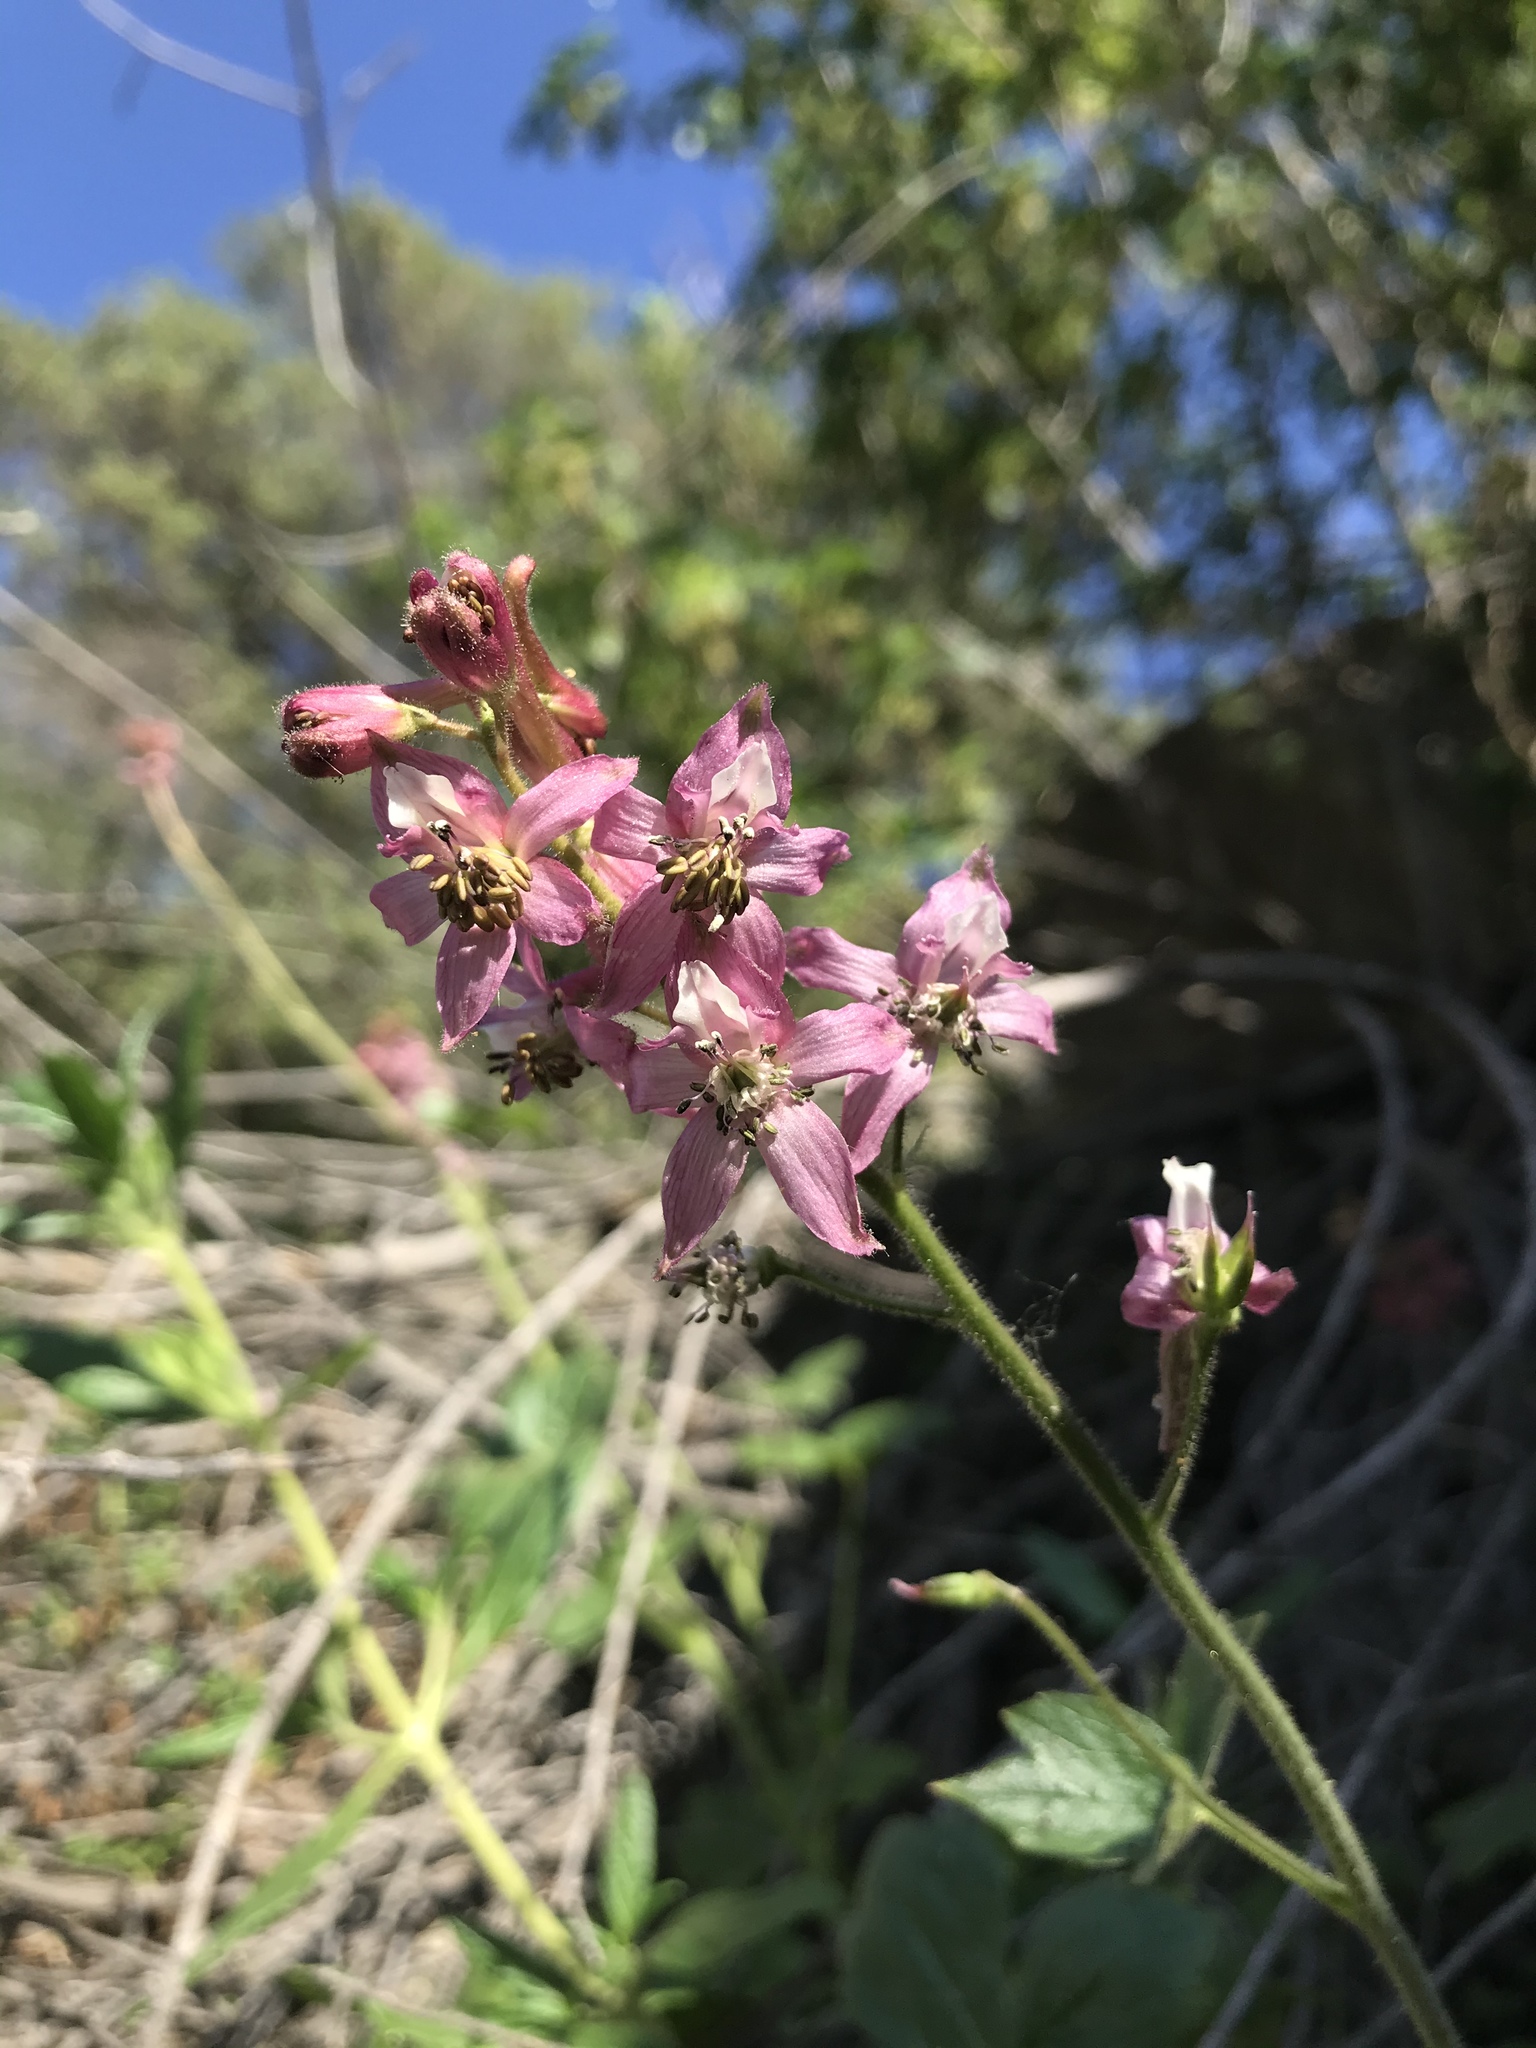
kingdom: Plantae
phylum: Tracheophyta
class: Magnoliopsida
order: Ranunculales
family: Ranunculaceae
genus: Delphinium
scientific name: Delphinium purpusii
